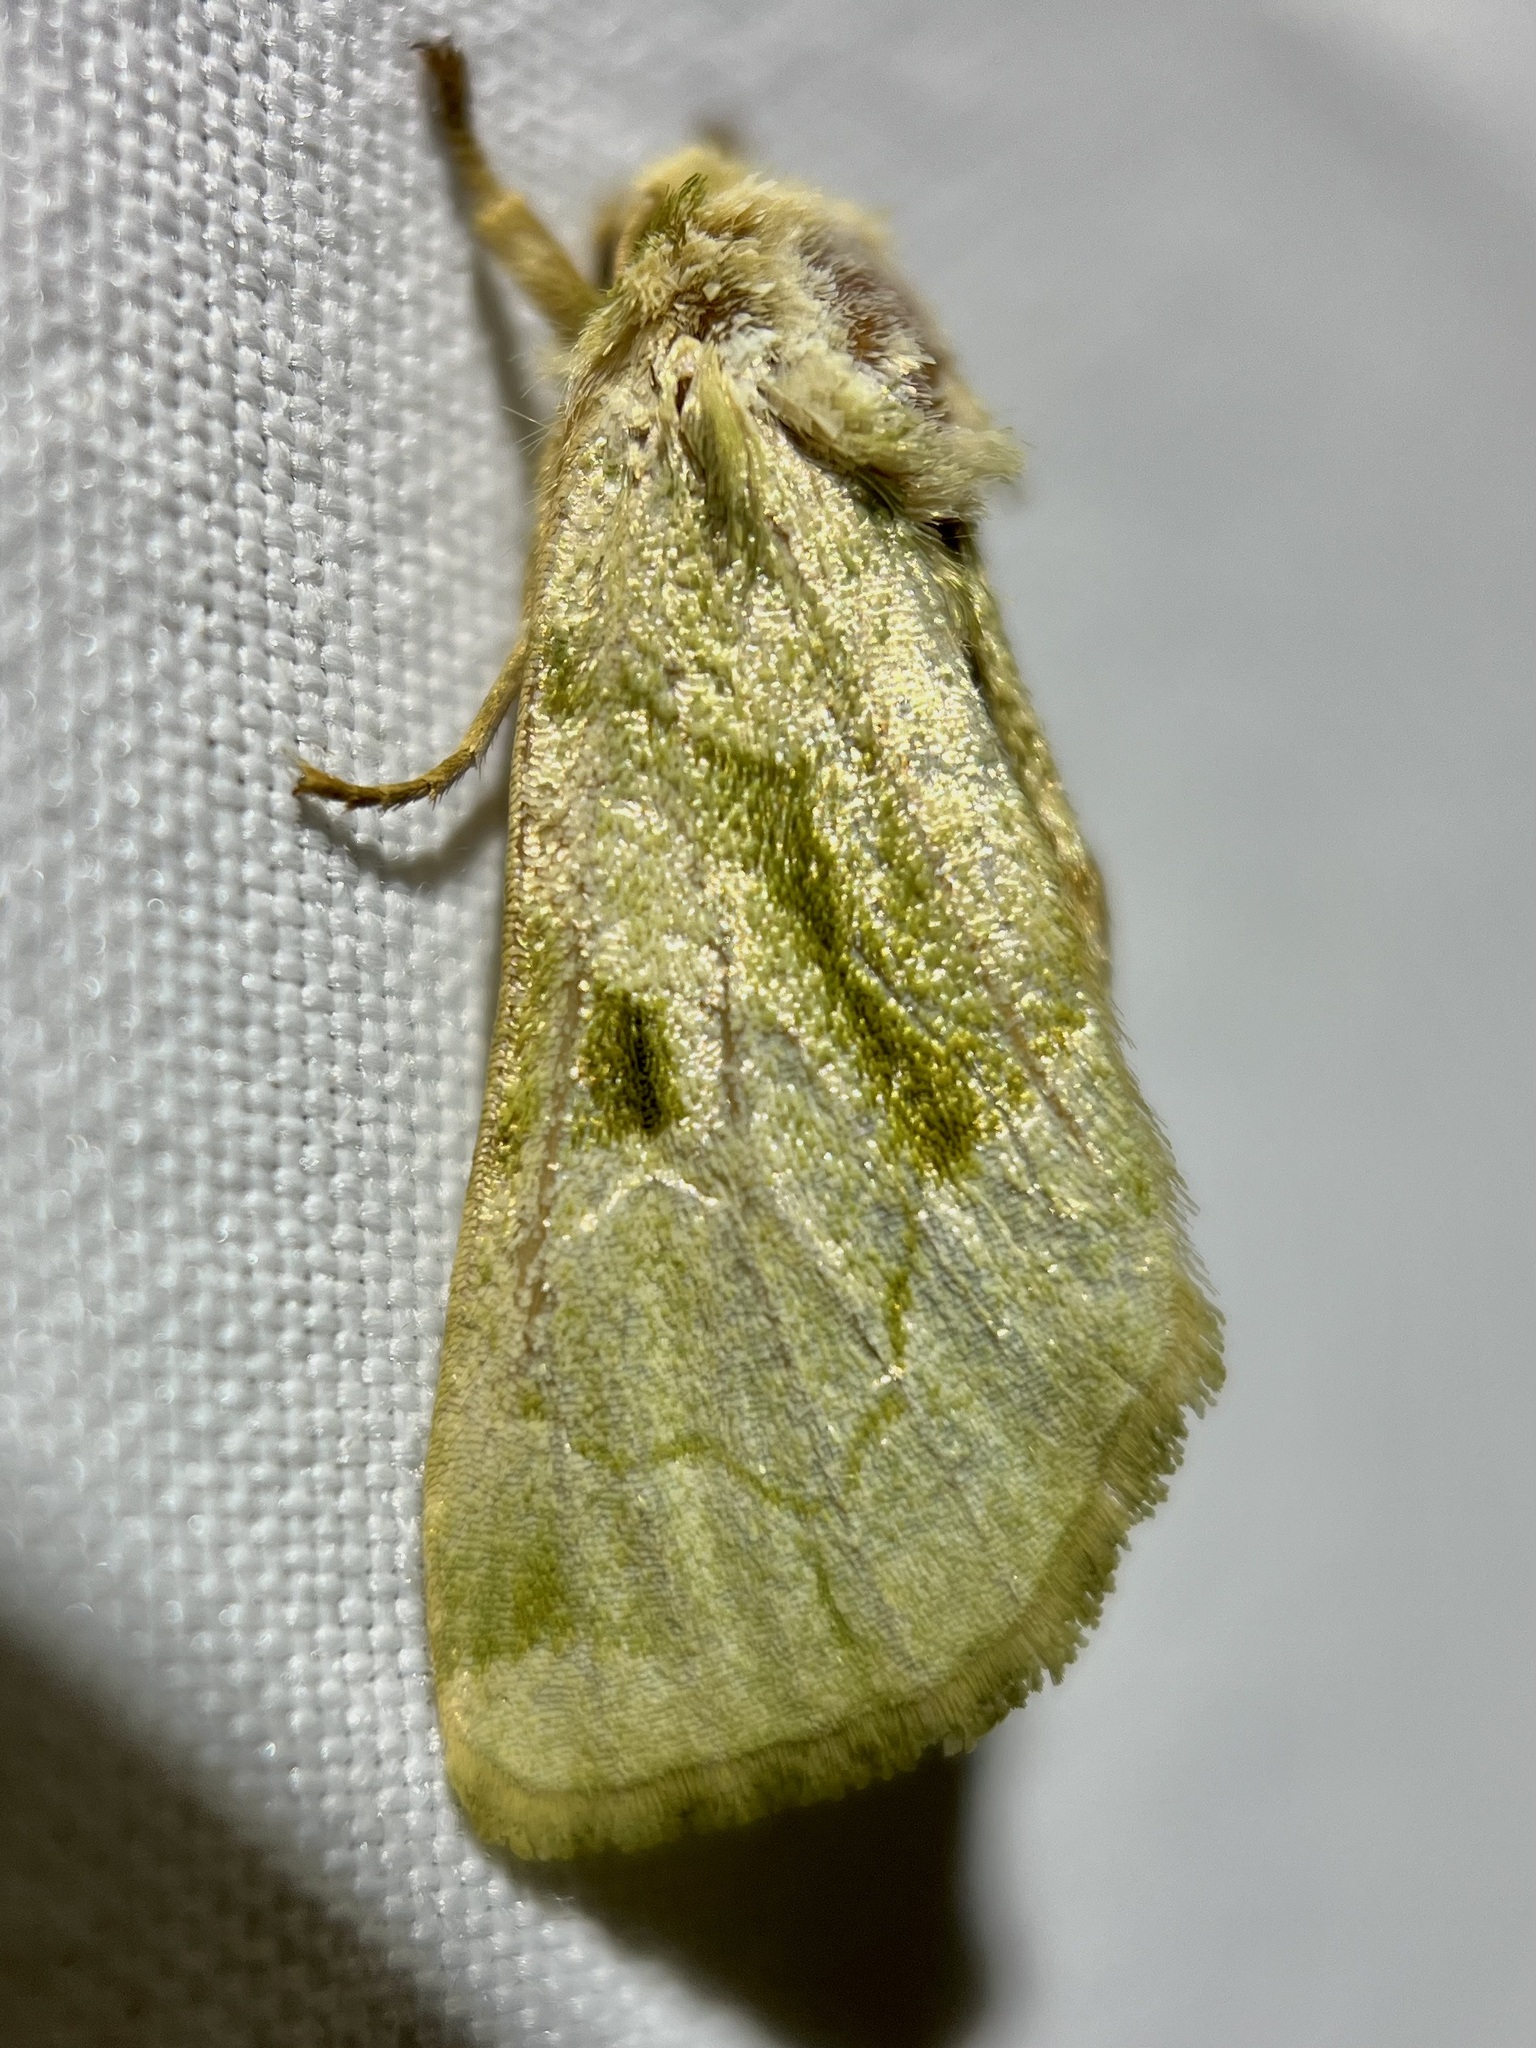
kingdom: Animalia
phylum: Arthropoda
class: Insecta
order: Lepidoptera
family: Noctuidae
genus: Oslaria
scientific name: Oslaria viridifera
